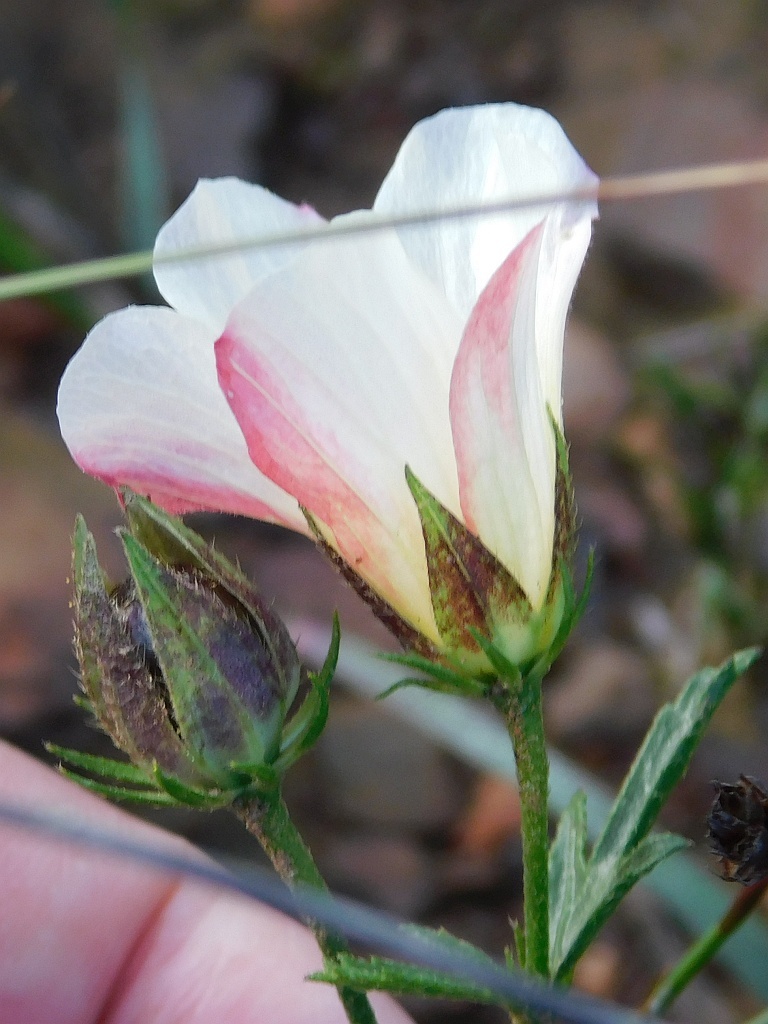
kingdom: Plantae
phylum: Tracheophyta
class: Magnoliopsida
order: Malvales
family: Malvaceae
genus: Hibiscus
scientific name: Hibiscus pusillus
